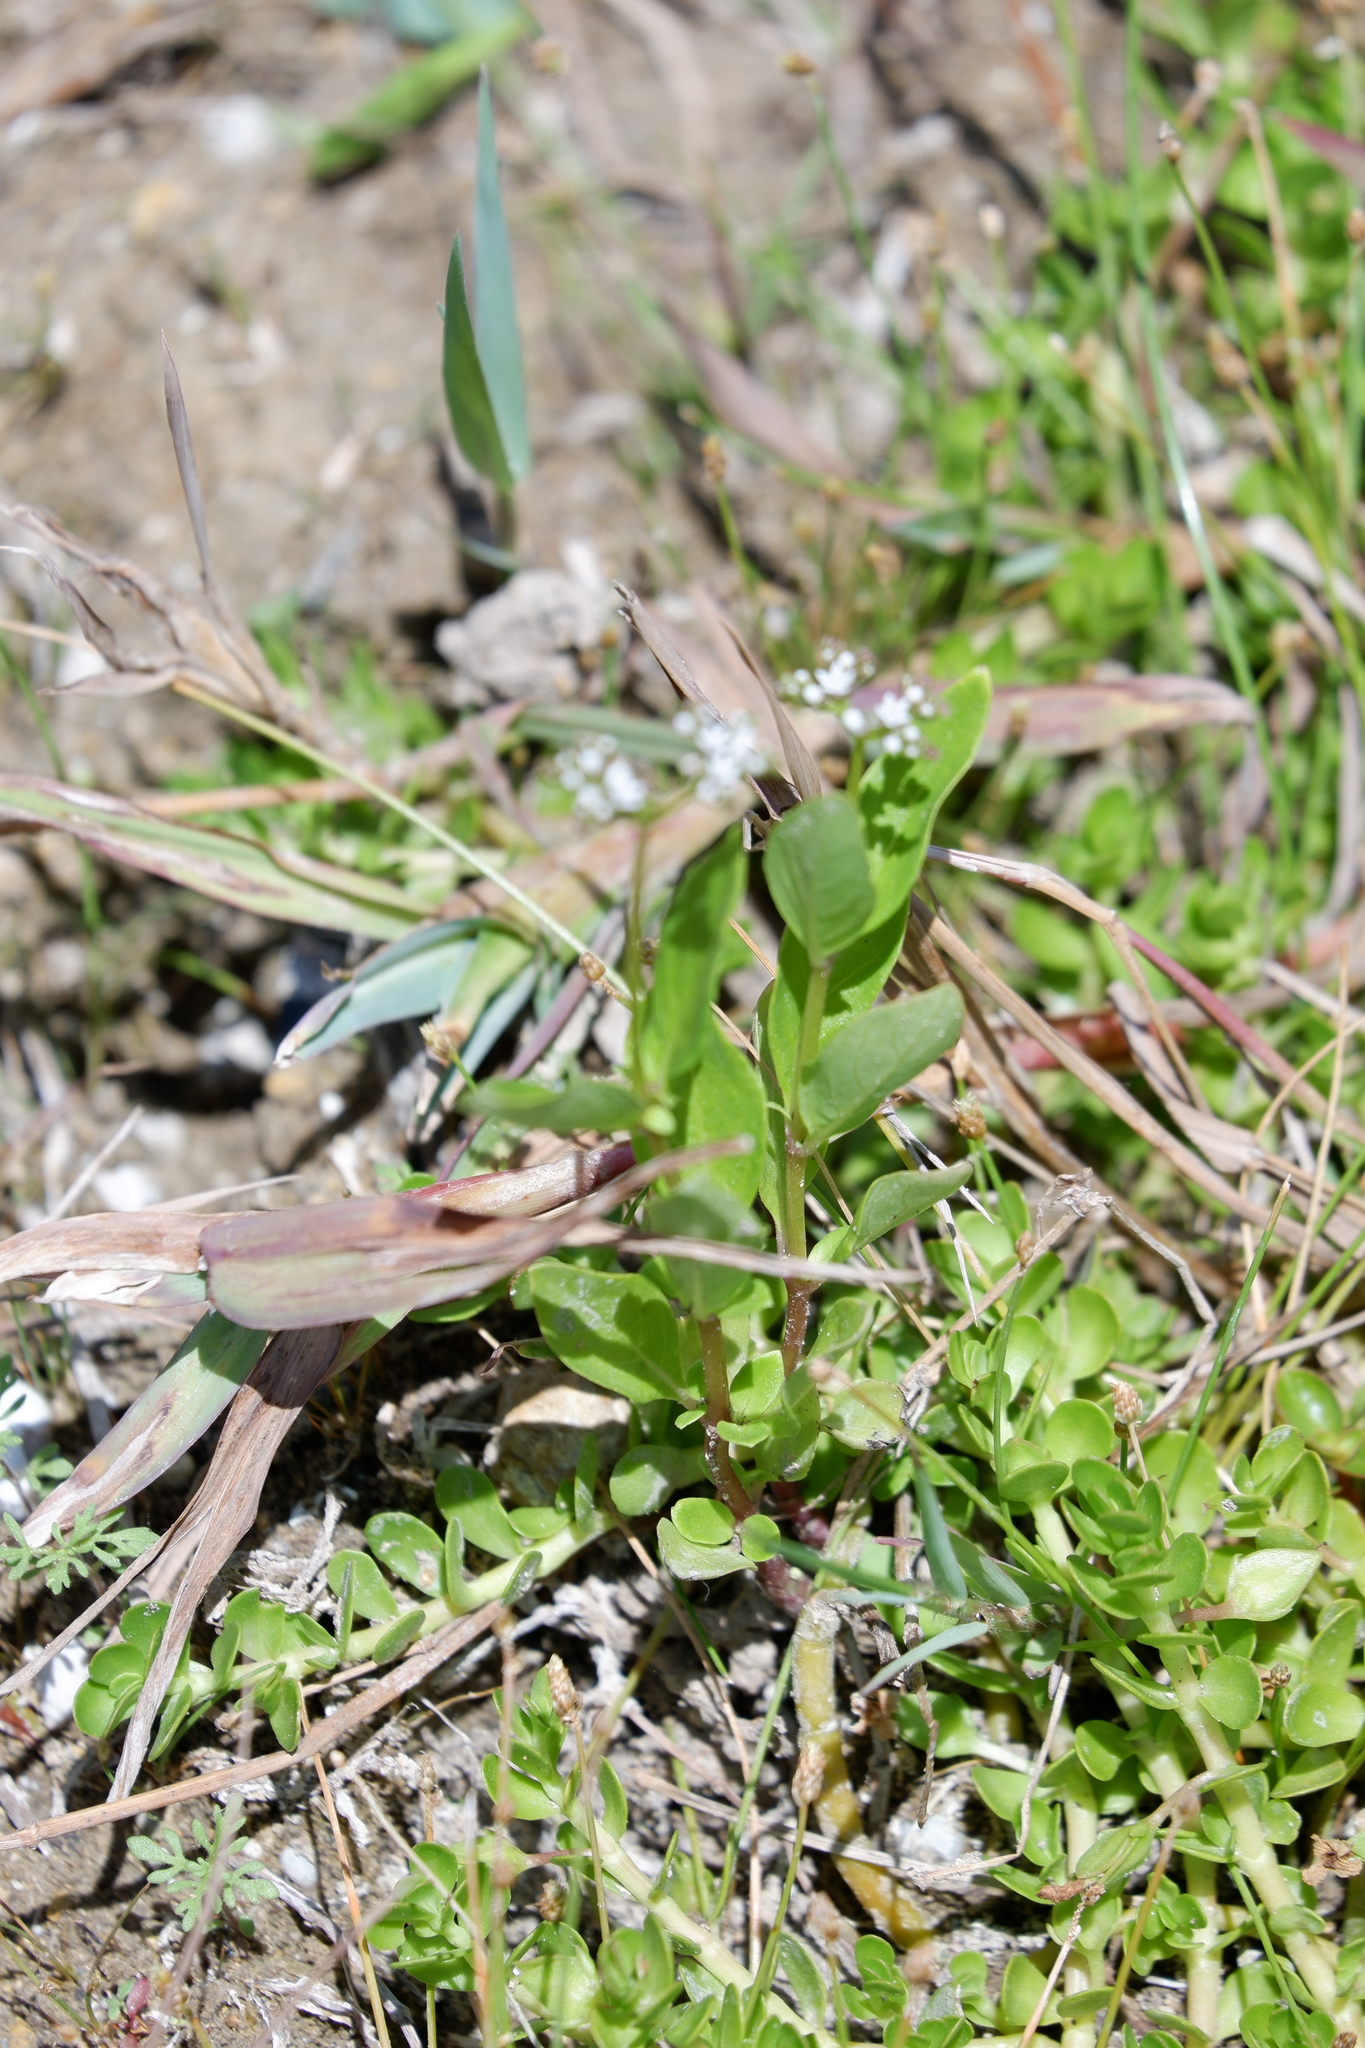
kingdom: Plantae
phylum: Tracheophyta
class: Magnoliopsida
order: Gentianales
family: Loganiaceae
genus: Mitreola
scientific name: Mitreola petiolata
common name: Lax hornpod
